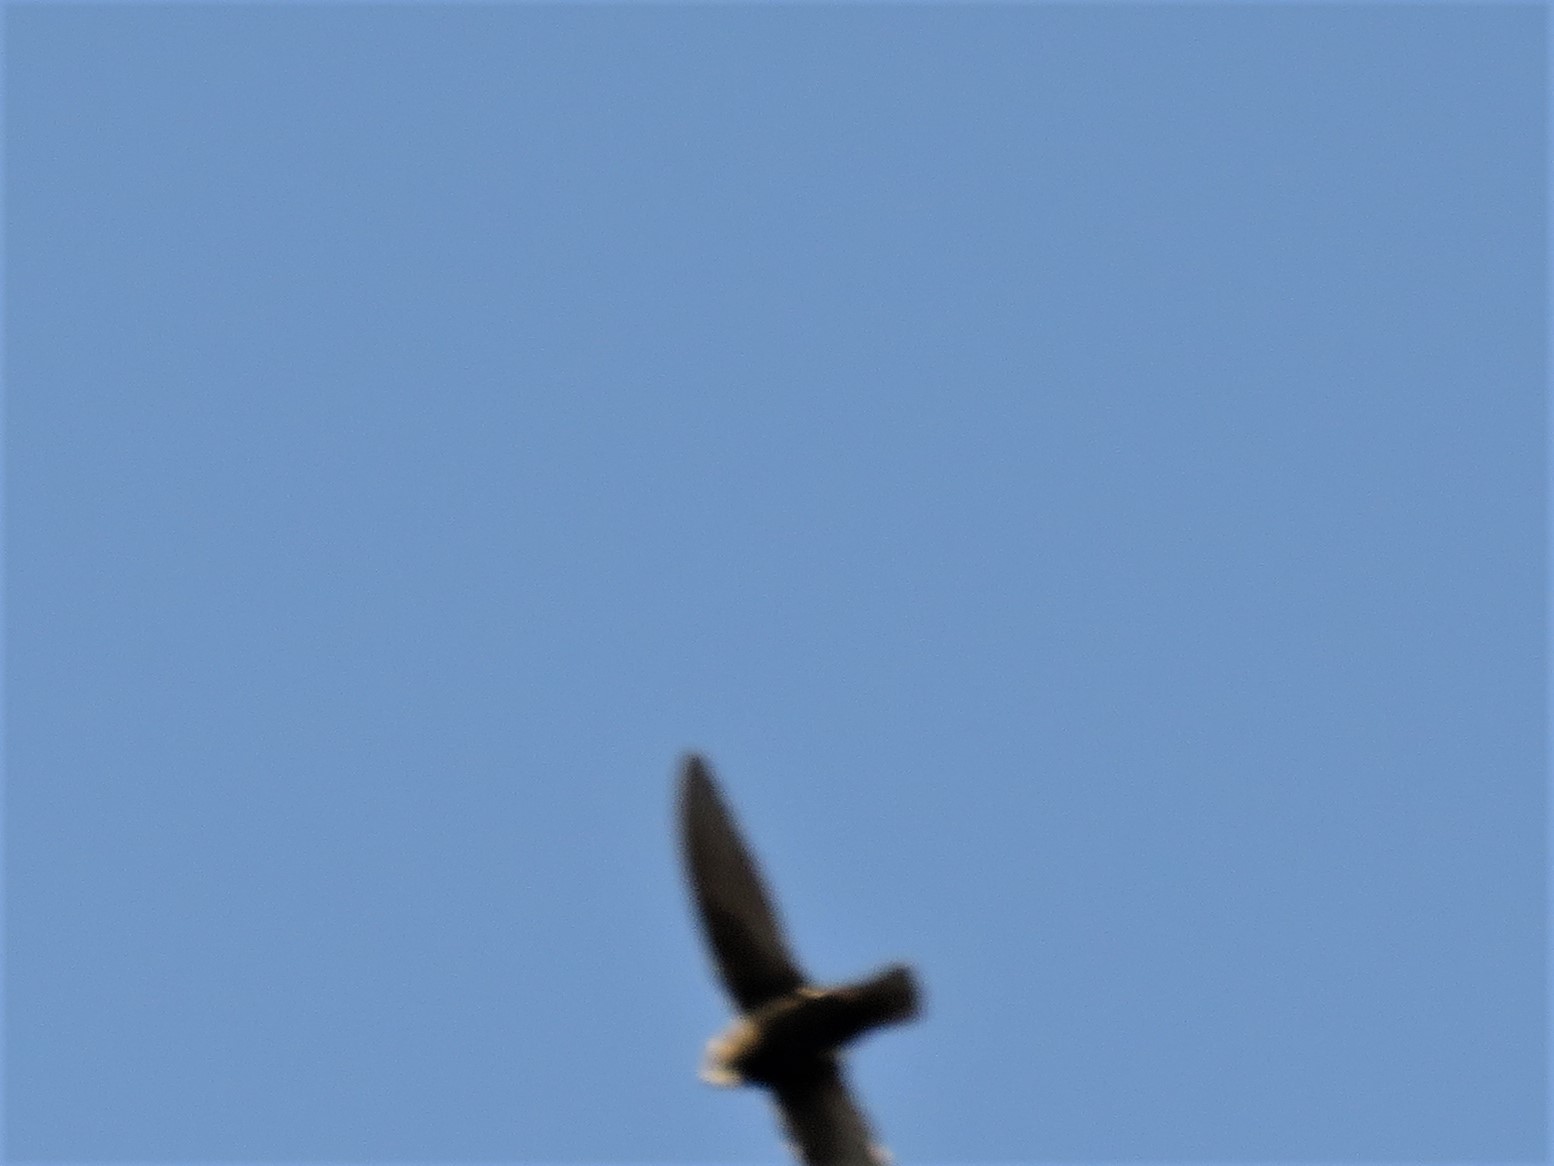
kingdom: Animalia
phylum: Chordata
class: Aves
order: Apodiformes
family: Apodidae
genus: Apus
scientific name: Apus affinis
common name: Little swift
